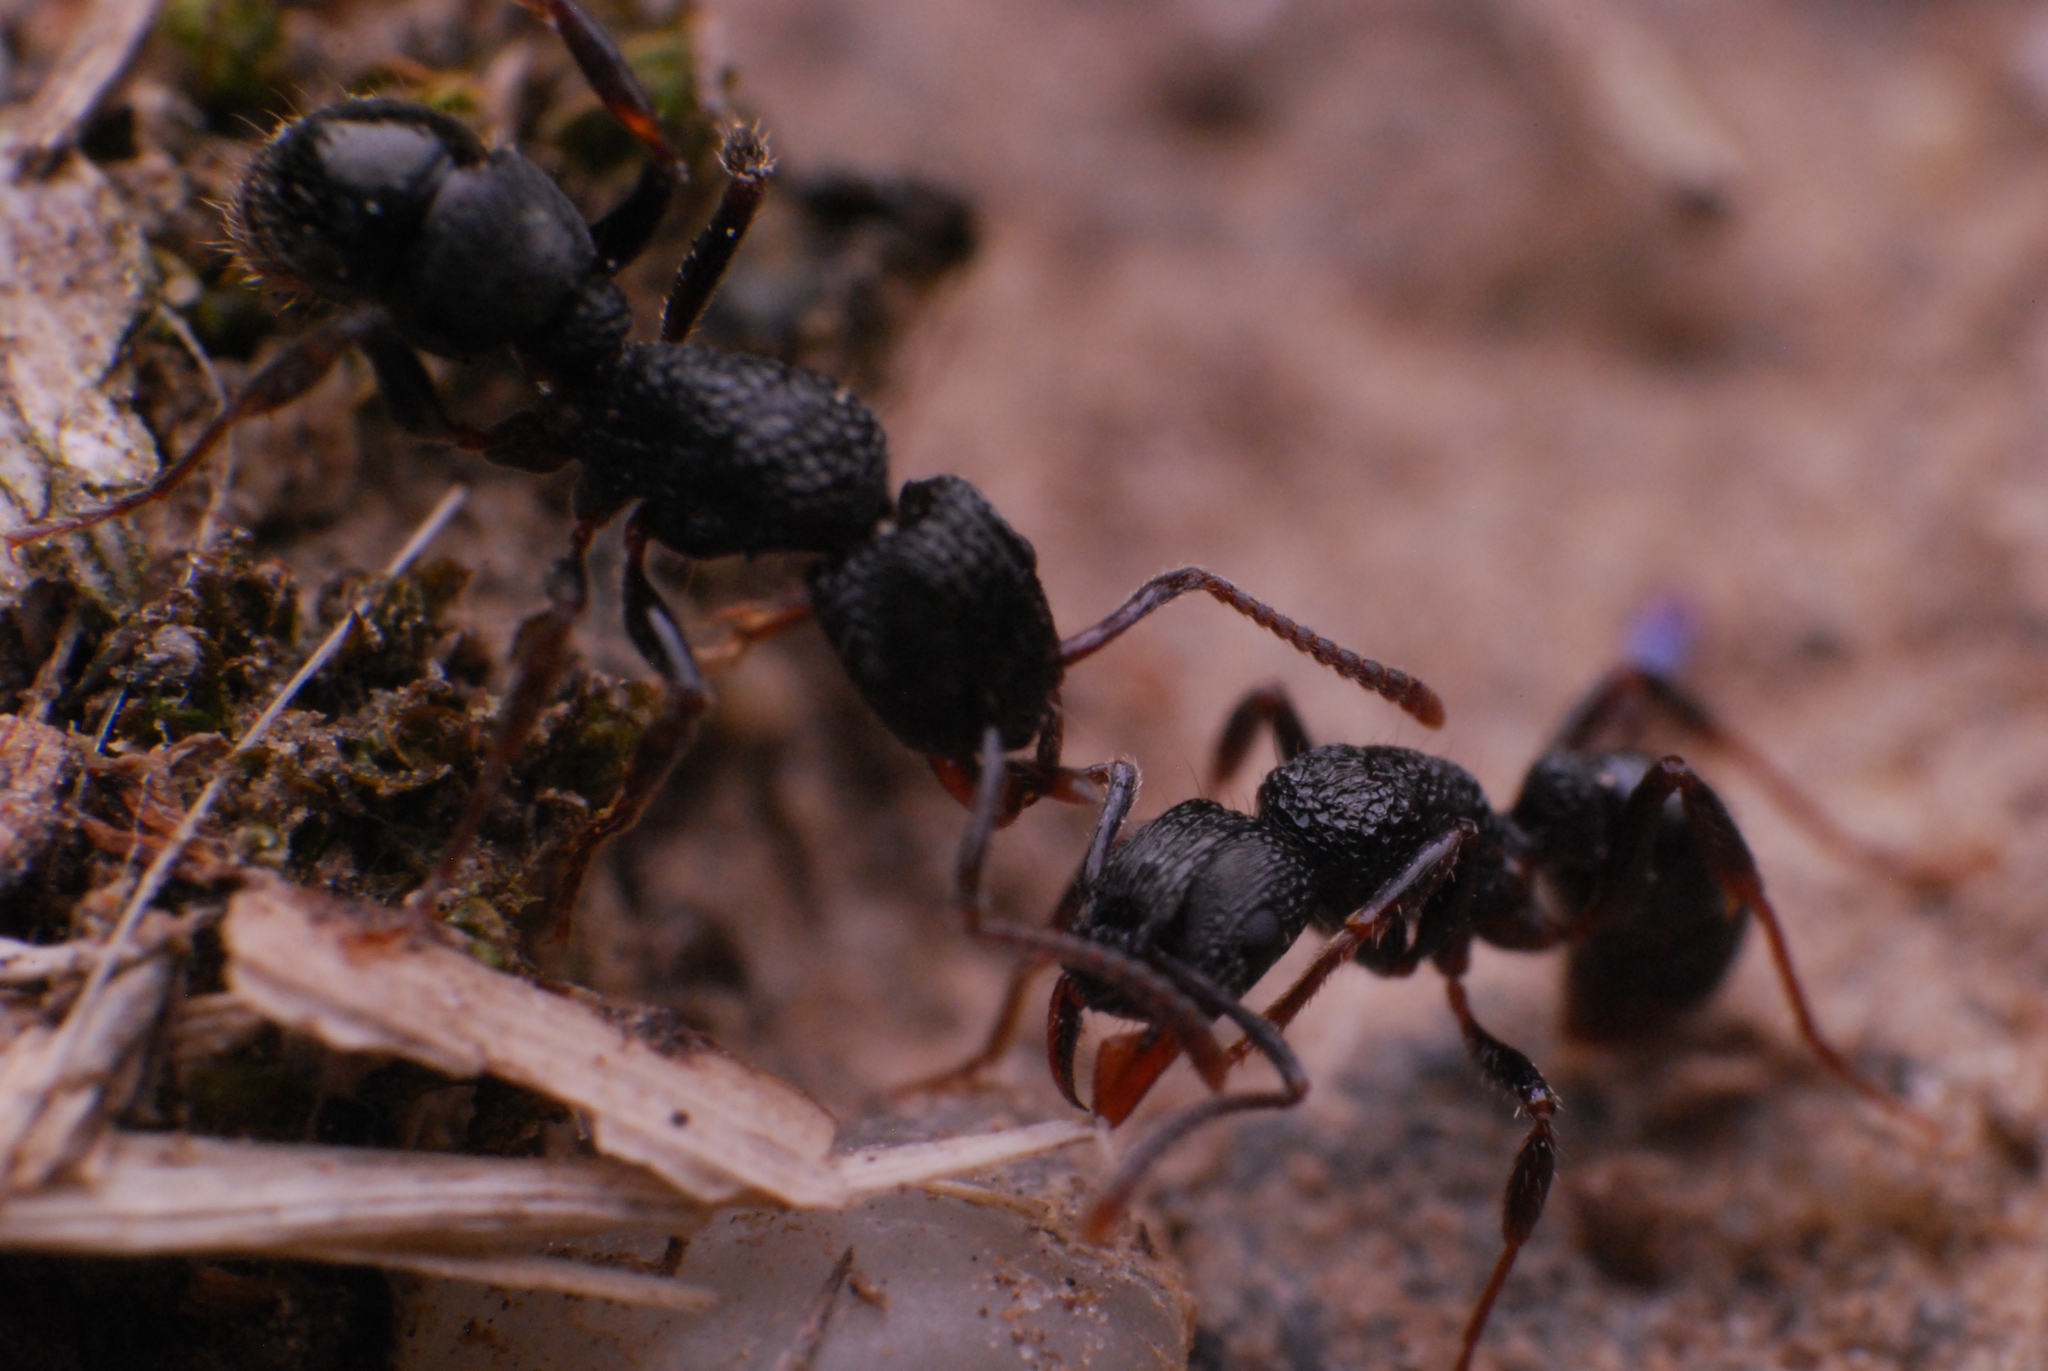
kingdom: Animalia
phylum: Arthropoda
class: Insecta
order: Hymenoptera
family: Formicidae
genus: Rhytidoponera
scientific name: Rhytidoponera victoriae
